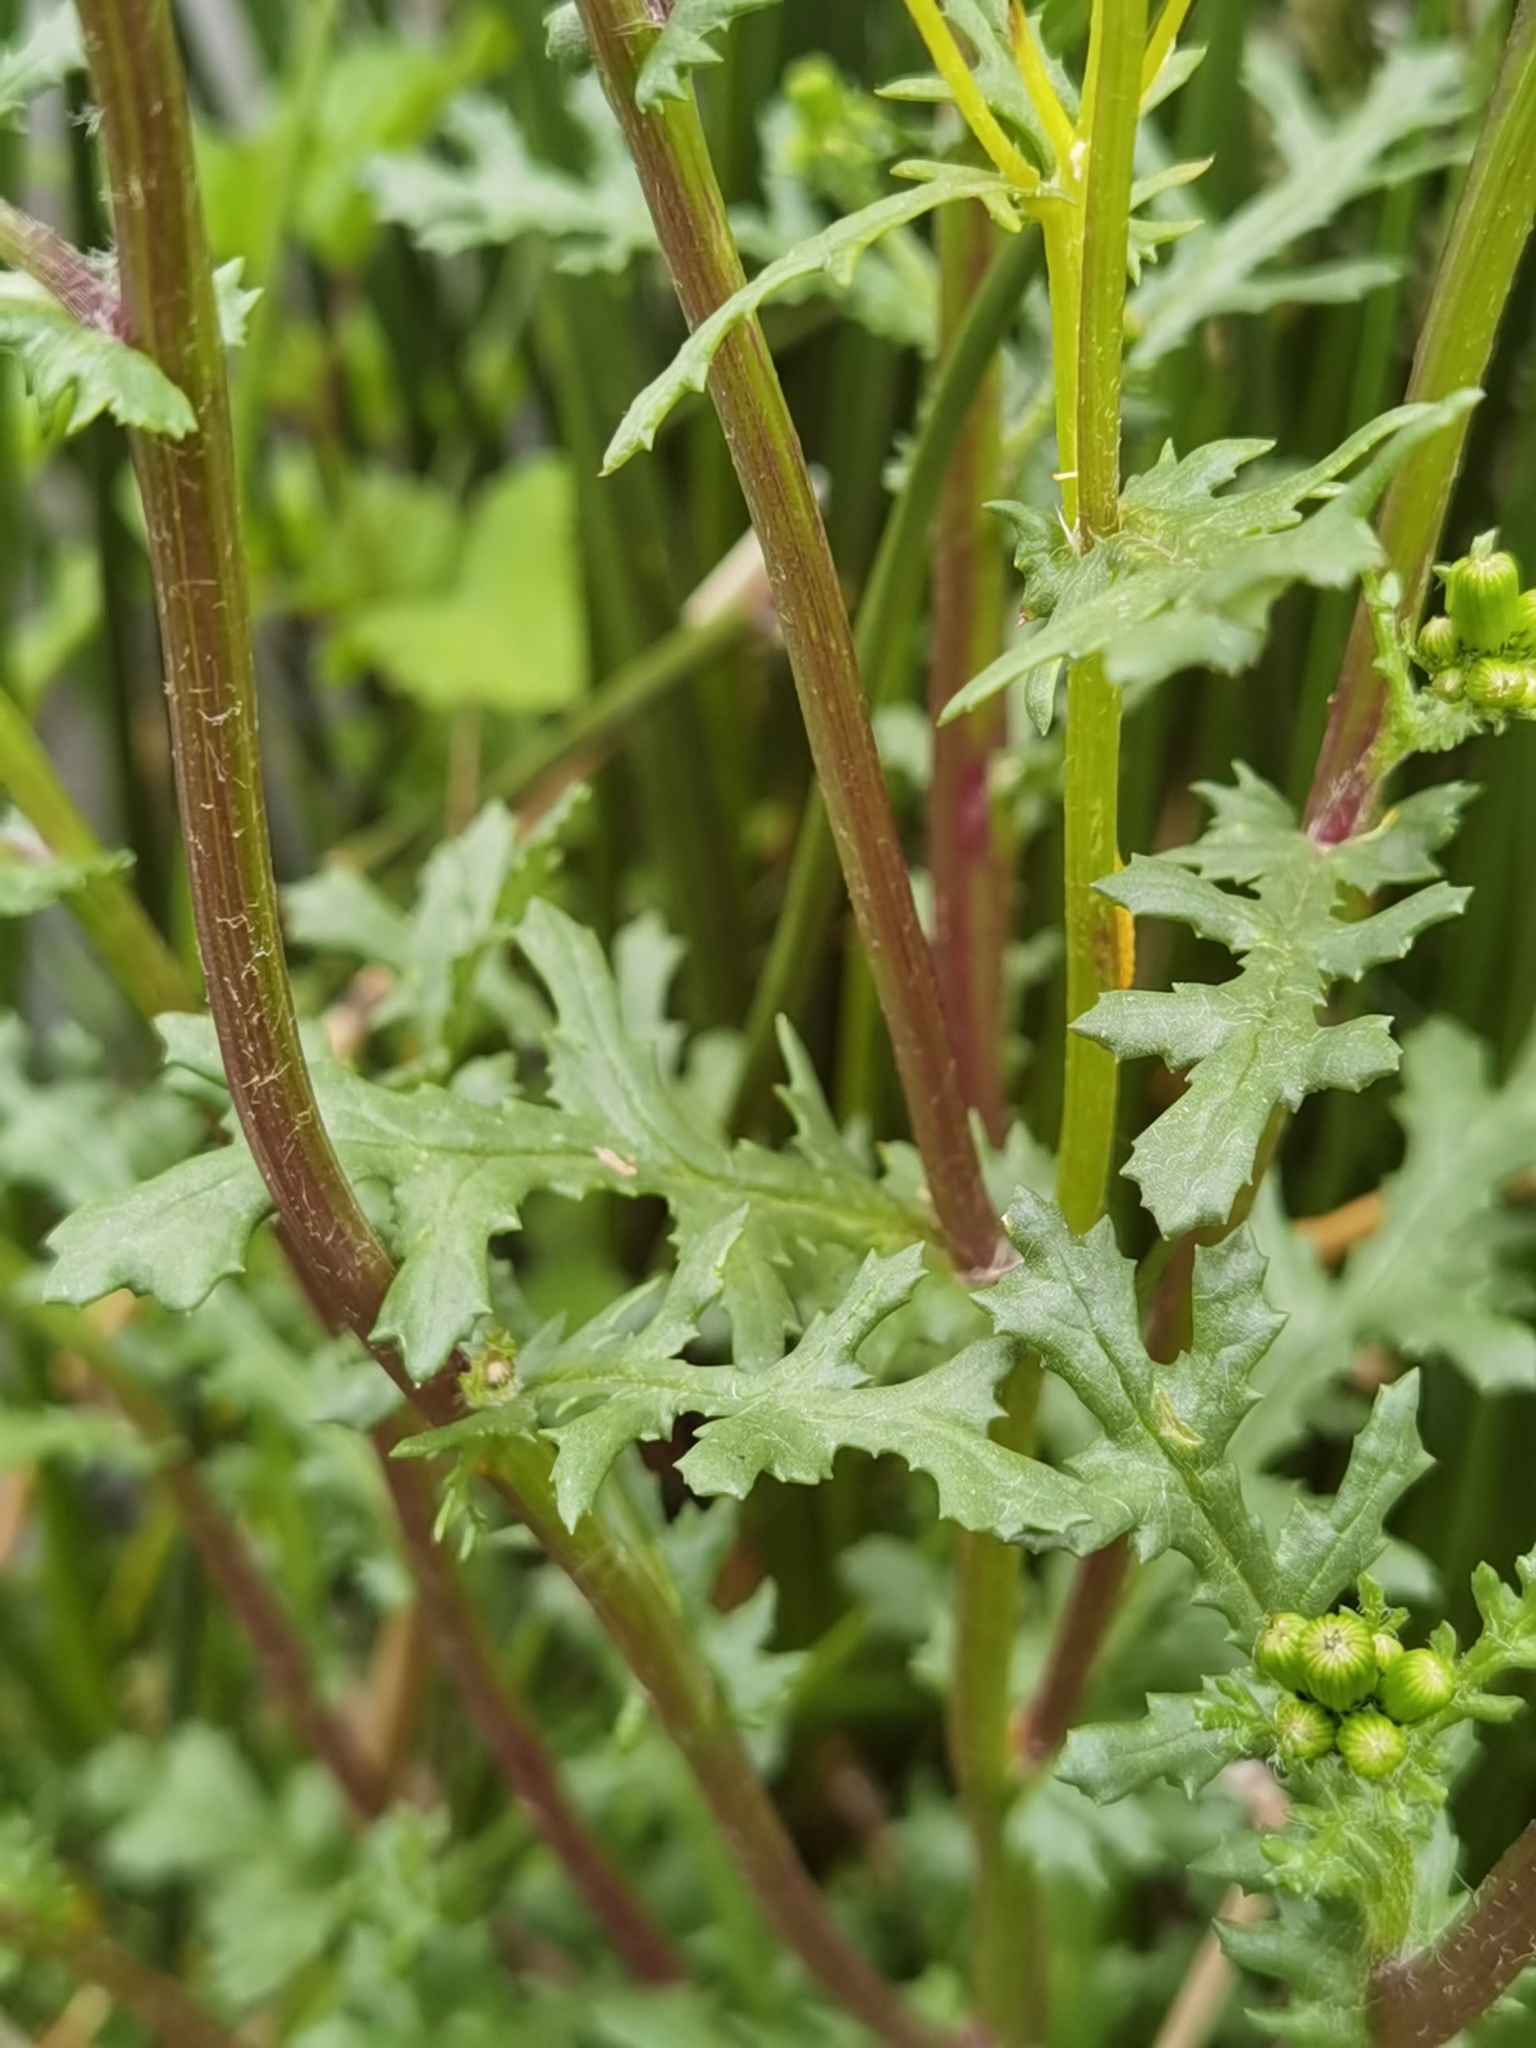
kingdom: Plantae
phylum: Tracheophyta
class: Magnoliopsida
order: Asterales
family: Asteraceae
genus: Senecio
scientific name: Senecio vulgaris
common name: Old-man-in-the-spring
